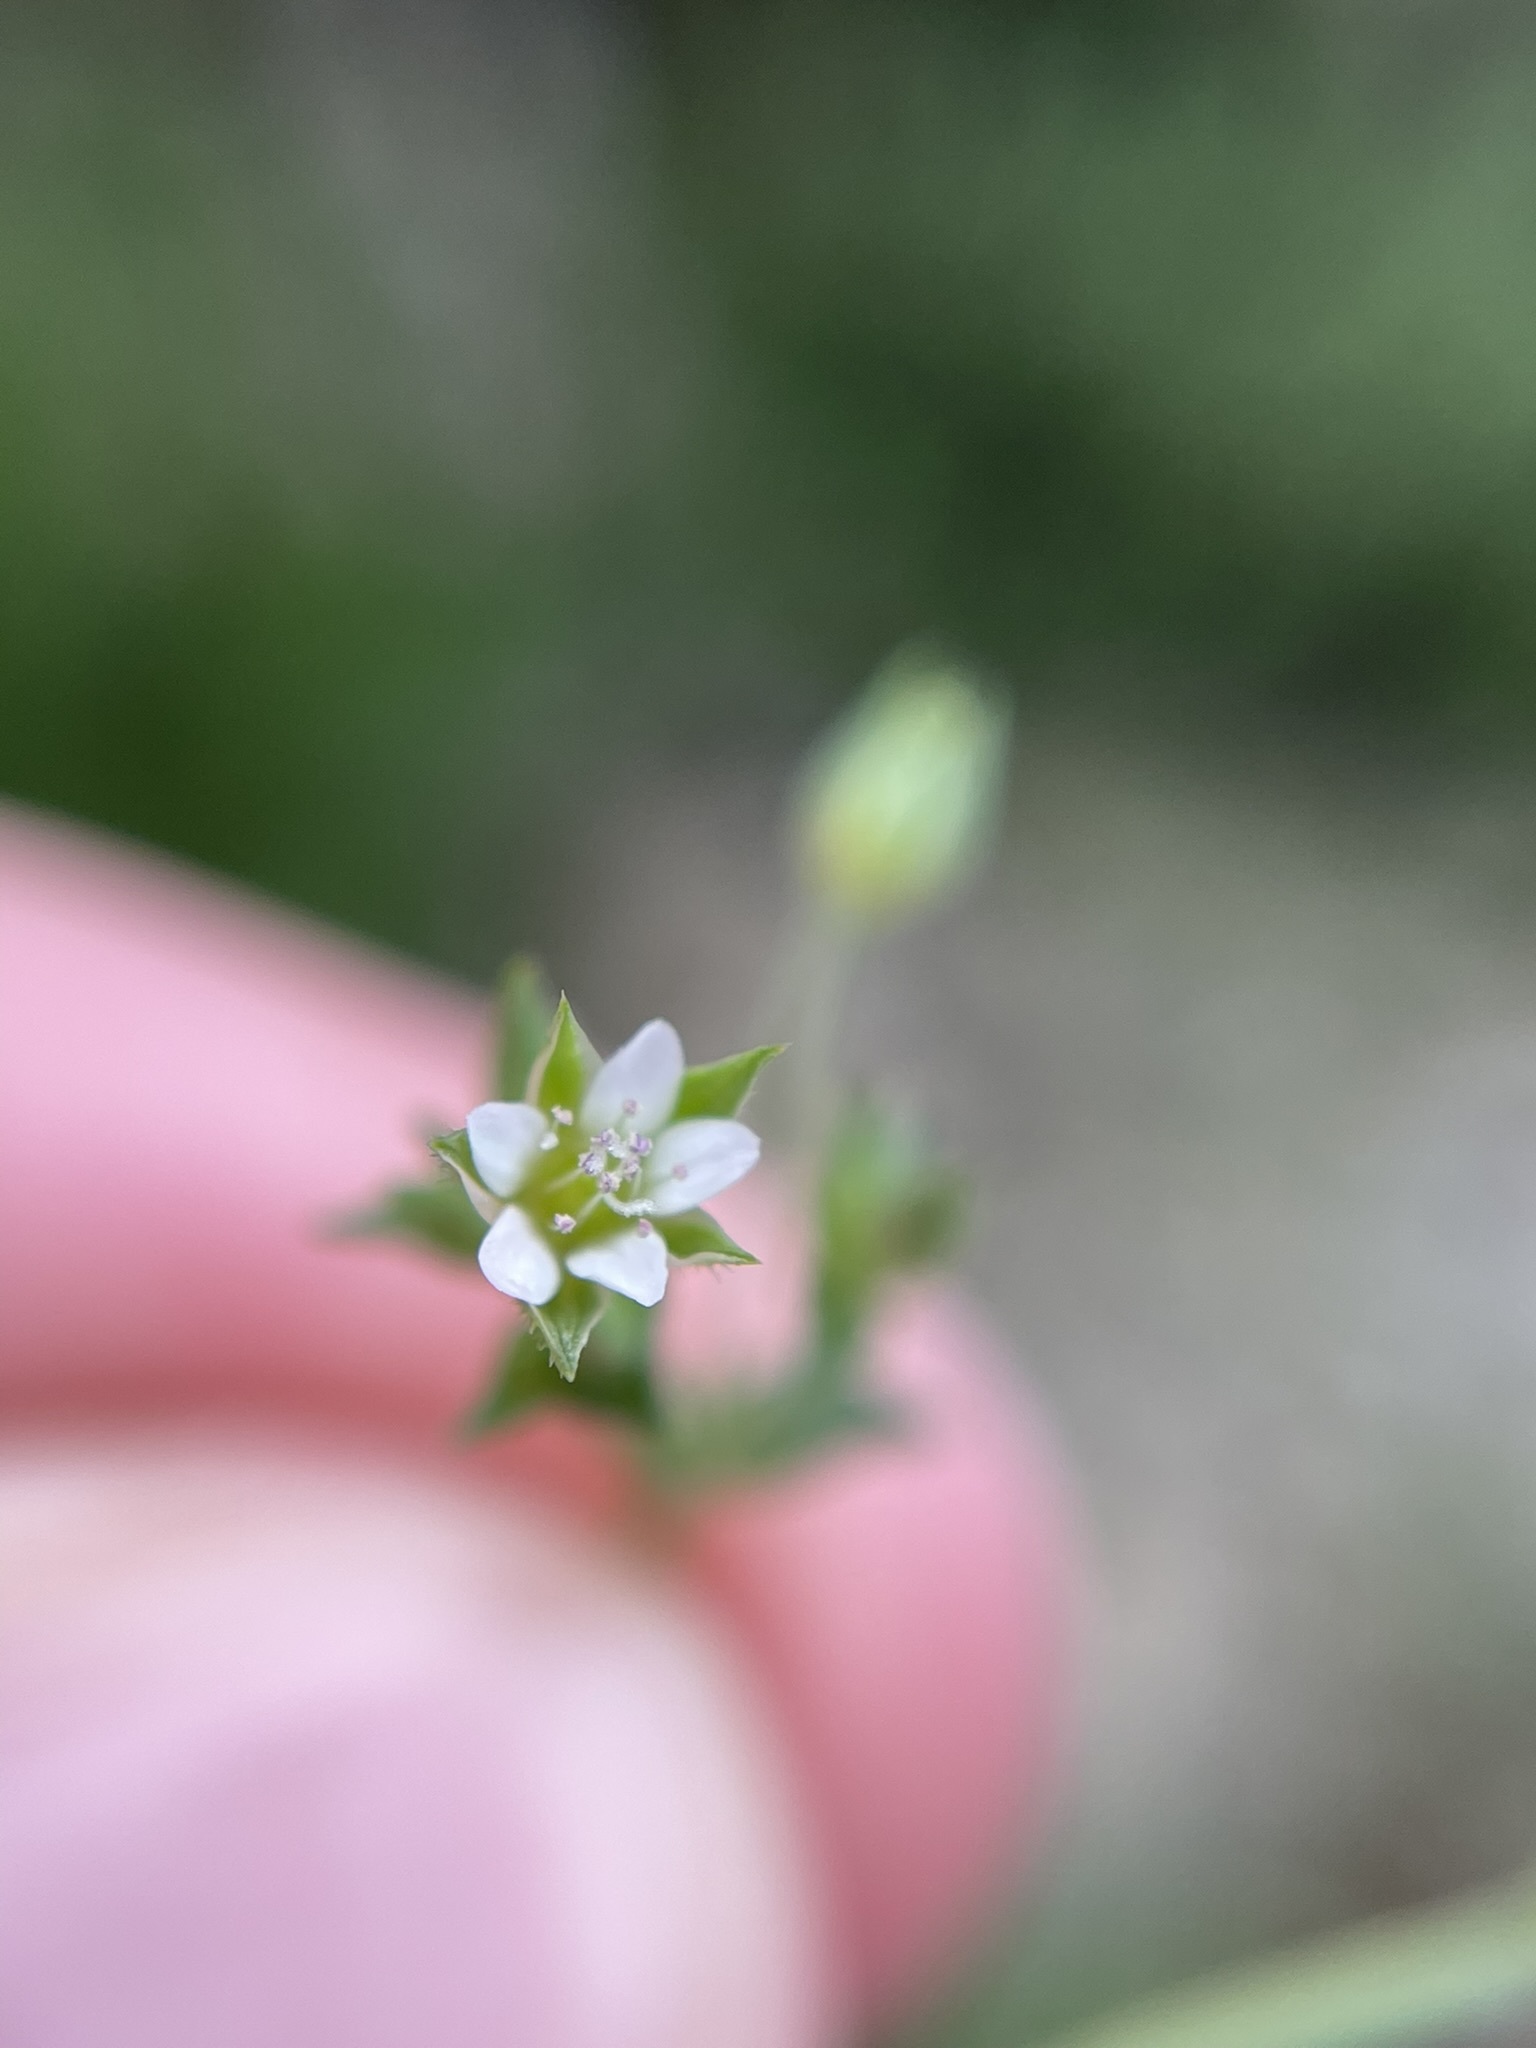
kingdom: Plantae
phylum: Tracheophyta
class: Magnoliopsida
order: Caryophyllales
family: Caryophyllaceae
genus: Arenaria
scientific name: Arenaria serpyllifolia
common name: Thyme-leaved sandwort
